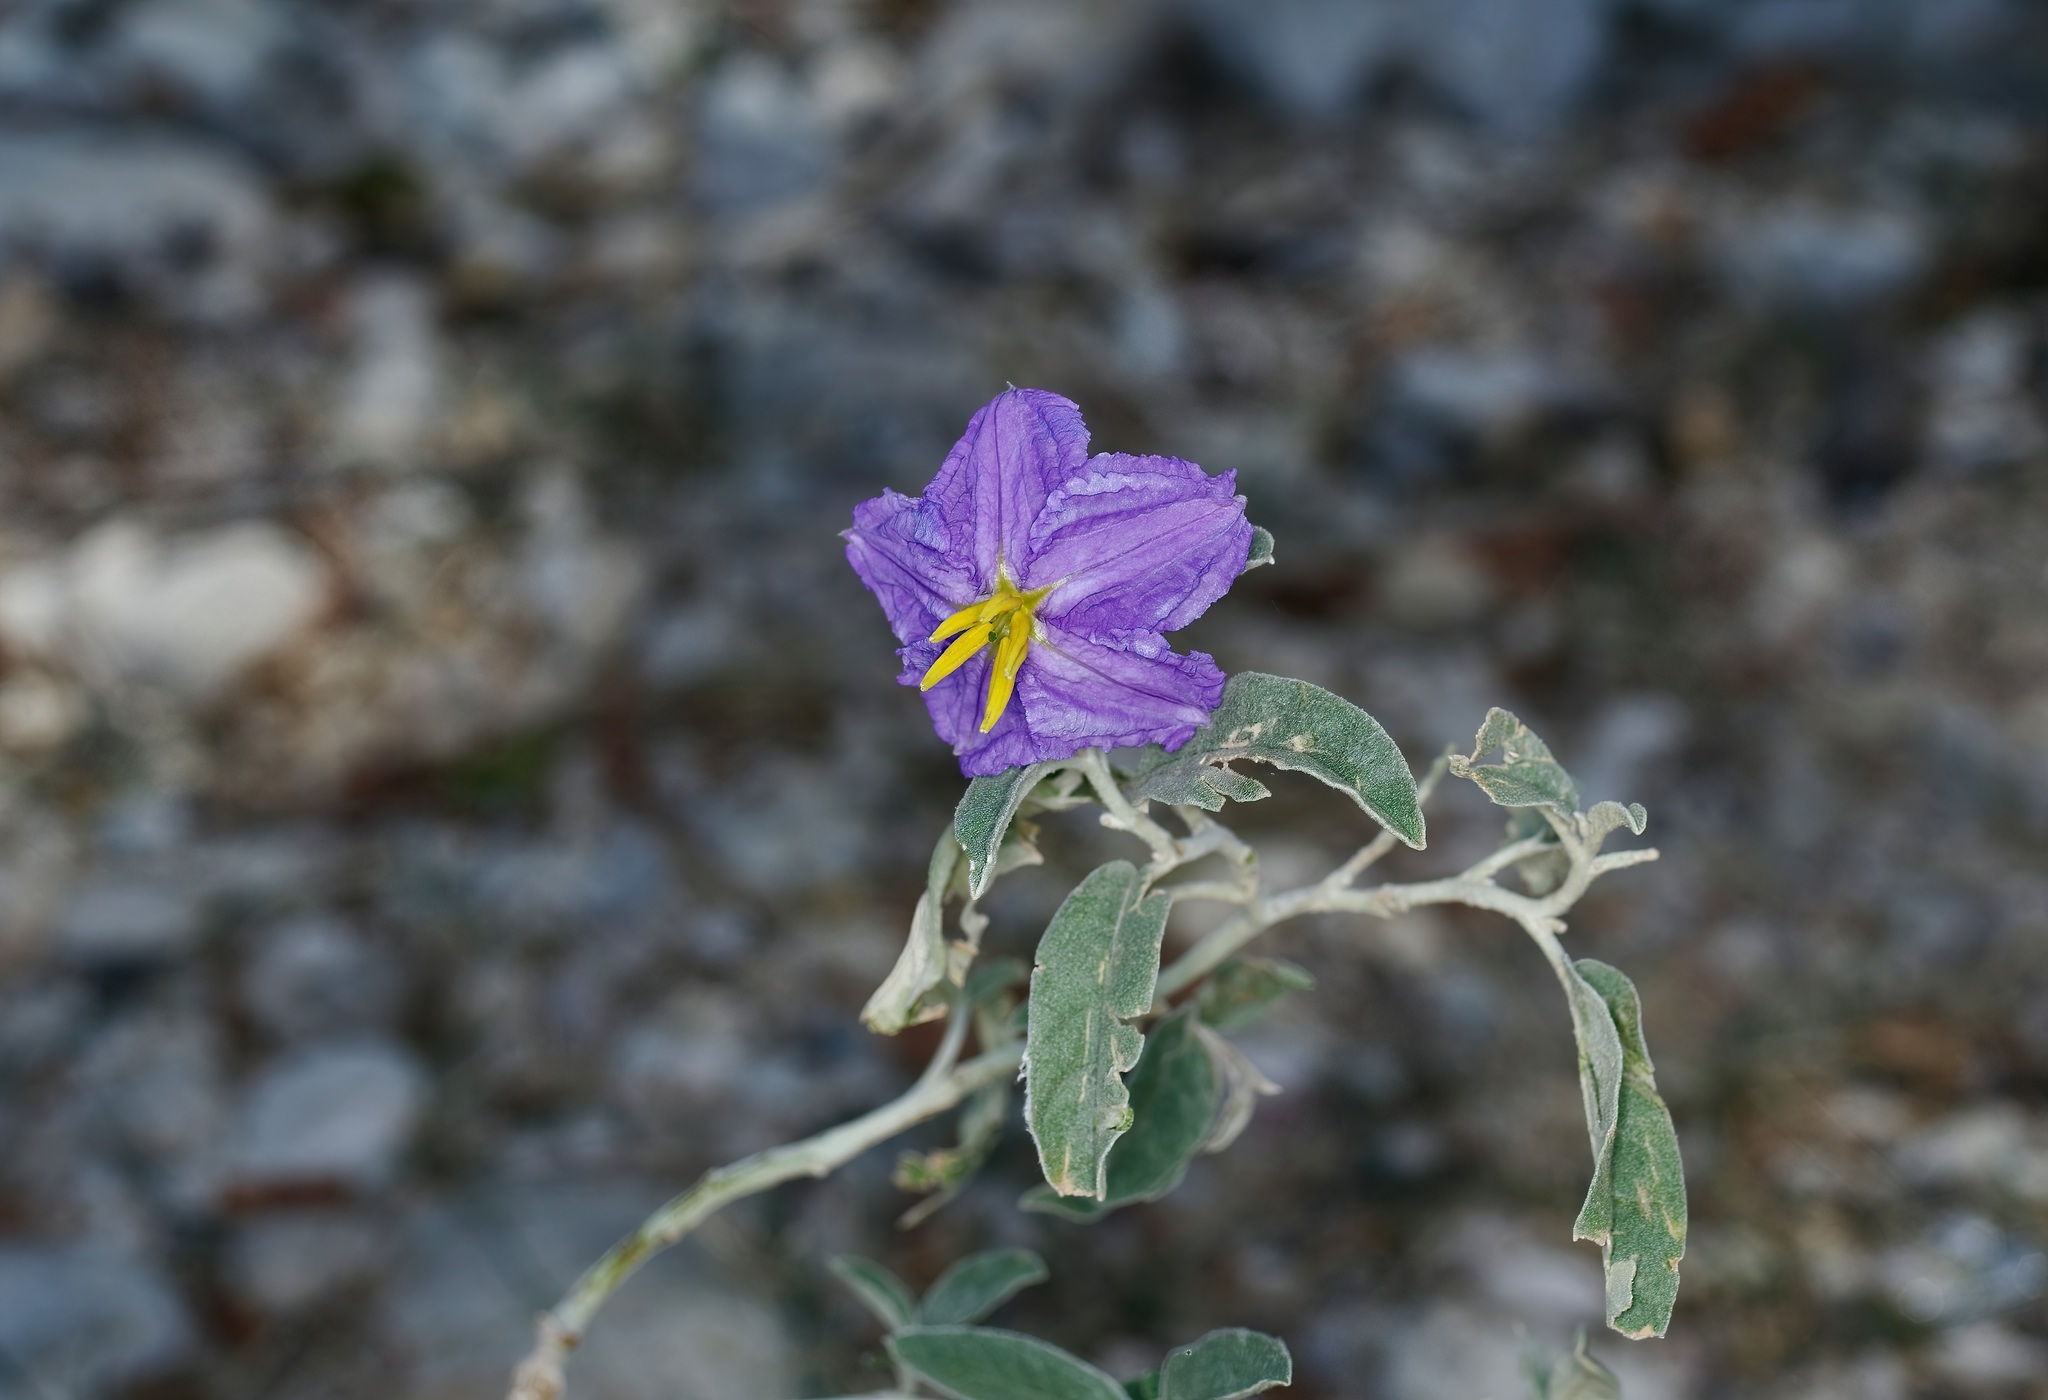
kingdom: Plantae
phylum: Tracheophyta
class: Magnoliopsida
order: Solanales
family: Solanaceae
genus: Solanum
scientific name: Solanum elaeagnifolium
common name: Silverleaf nightshade
